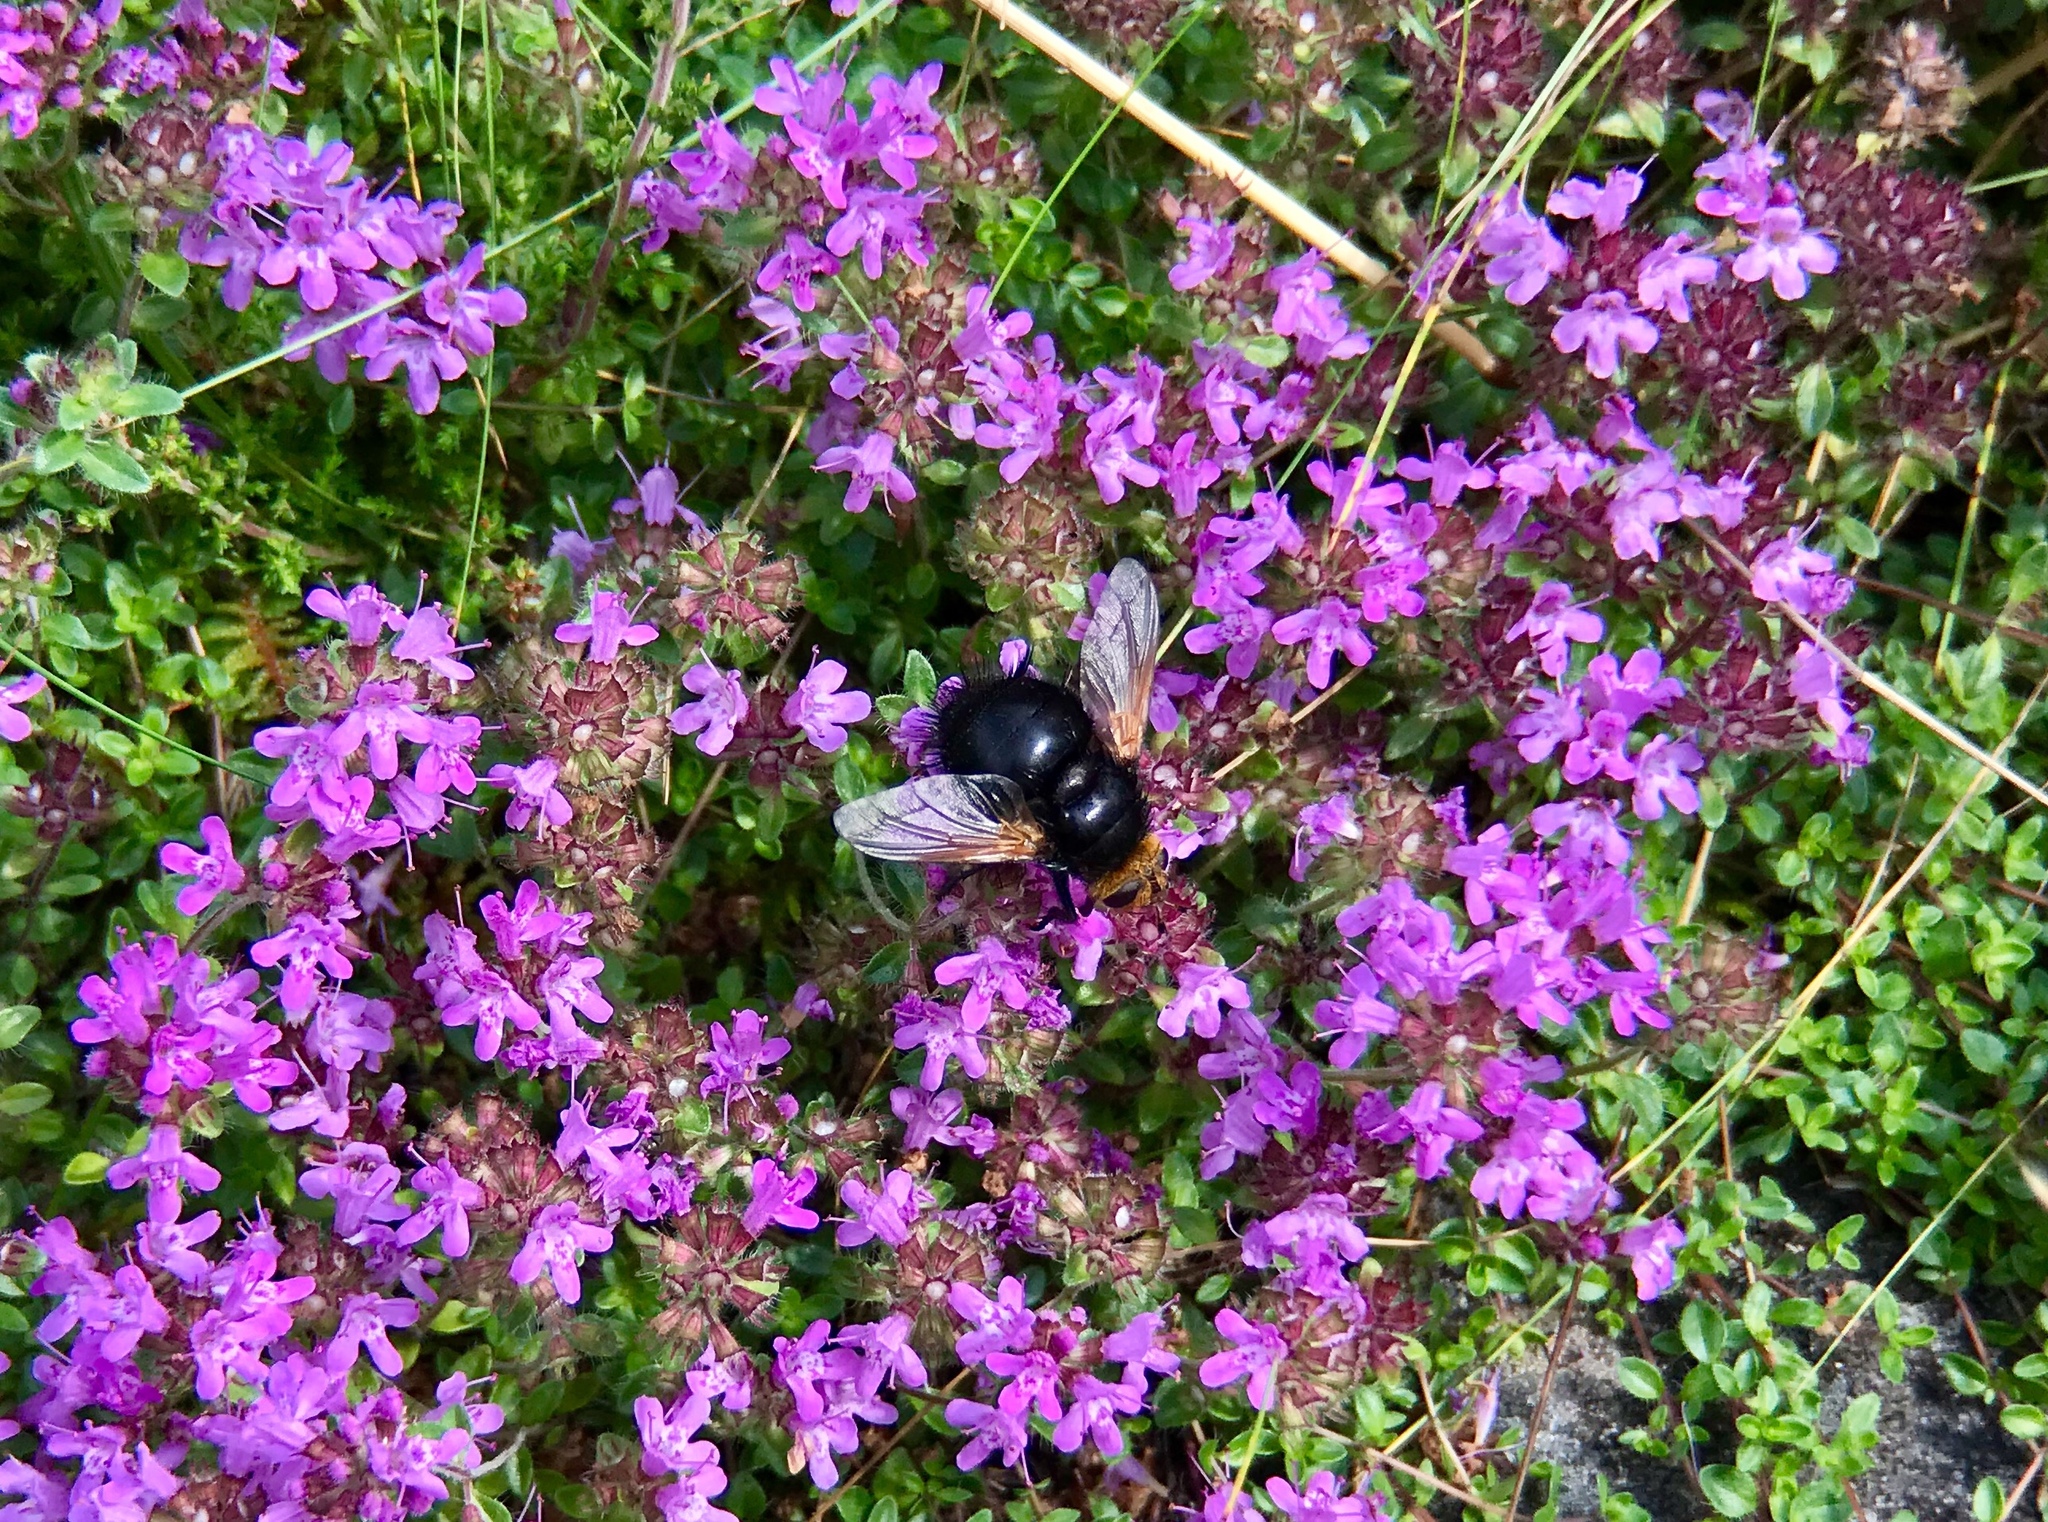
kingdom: Animalia
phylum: Arthropoda
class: Insecta
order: Diptera
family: Tachinidae
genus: Tachina
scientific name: Tachina grossa
